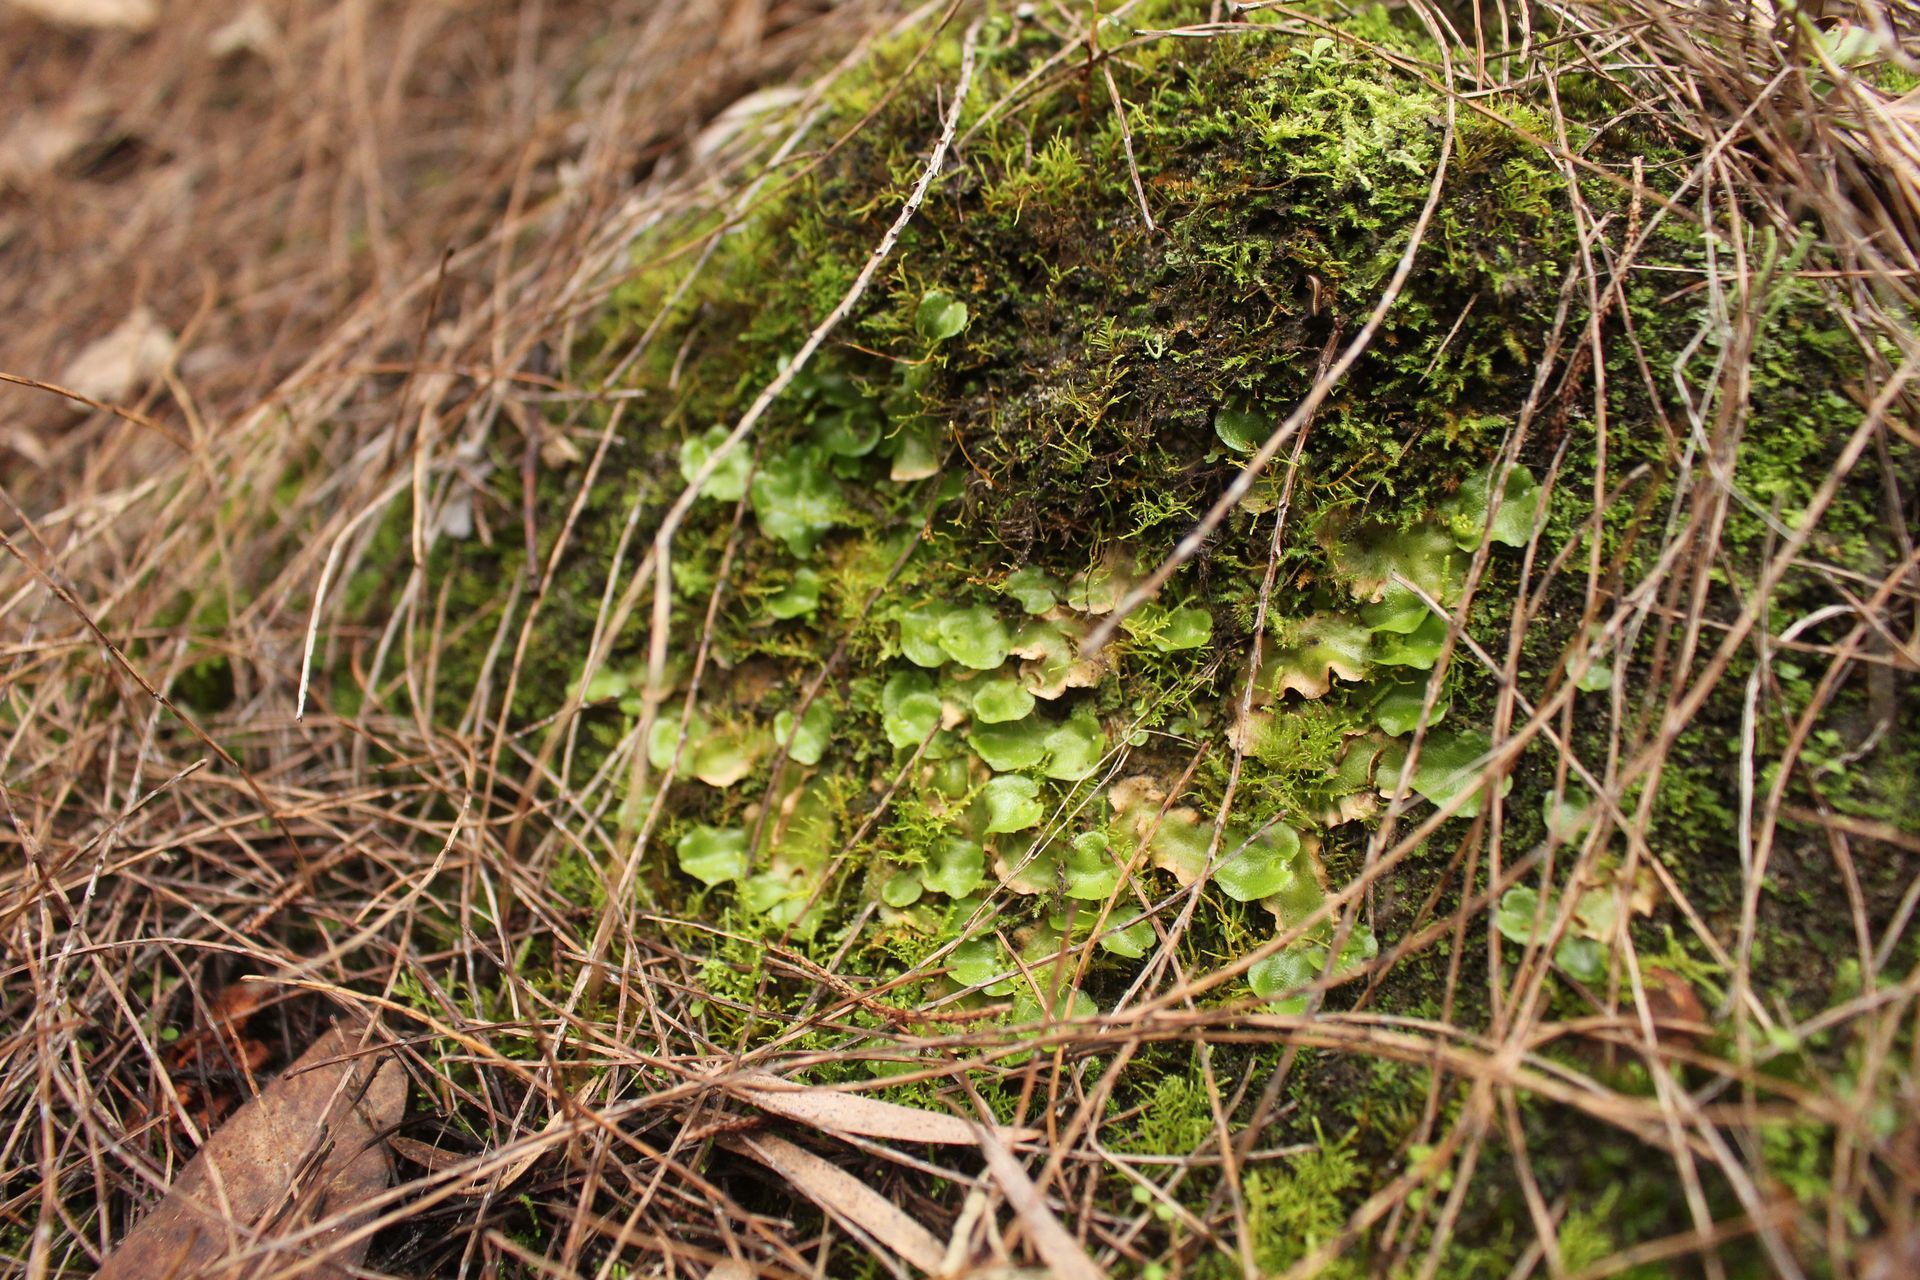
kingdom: Plantae
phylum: Marchantiophyta
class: Marchantiopsida
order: Lunulariales
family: Lunulariaceae
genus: Lunularia
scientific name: Lunularia cruciata
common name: Crescent-cup liverwort
